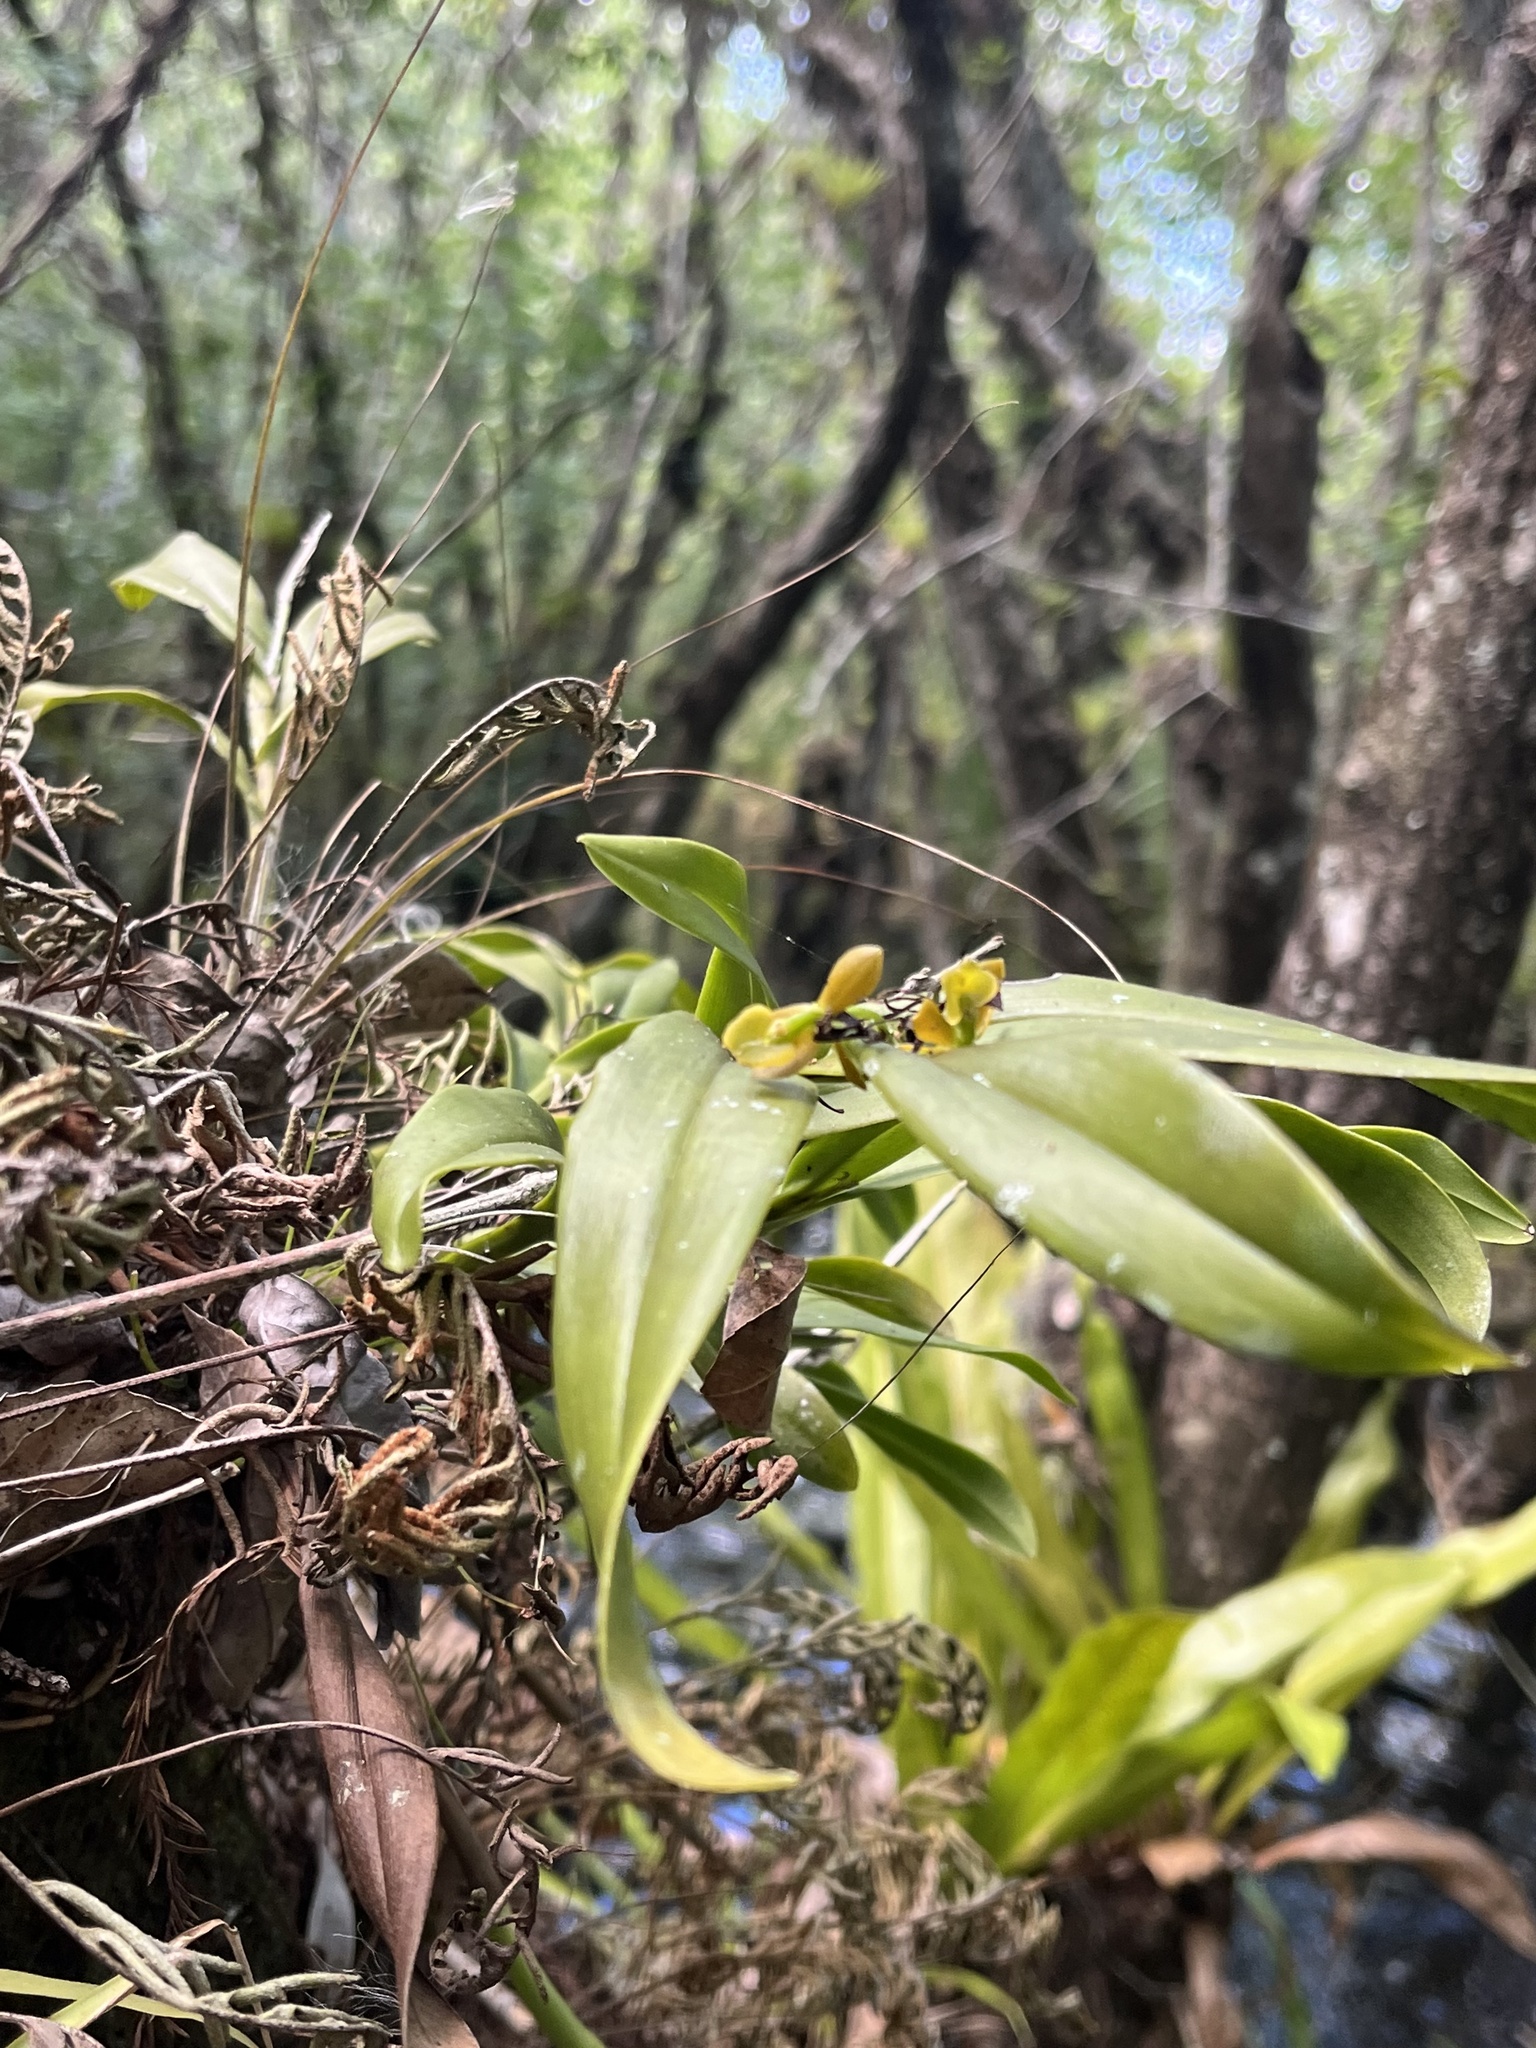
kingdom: Plantae
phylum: Tracheophyta
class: Liliopsida
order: Asparagales
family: Orchidaceae
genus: Epidendrum
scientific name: Epidendrum amphistomum
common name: Big-mouth star orchid
